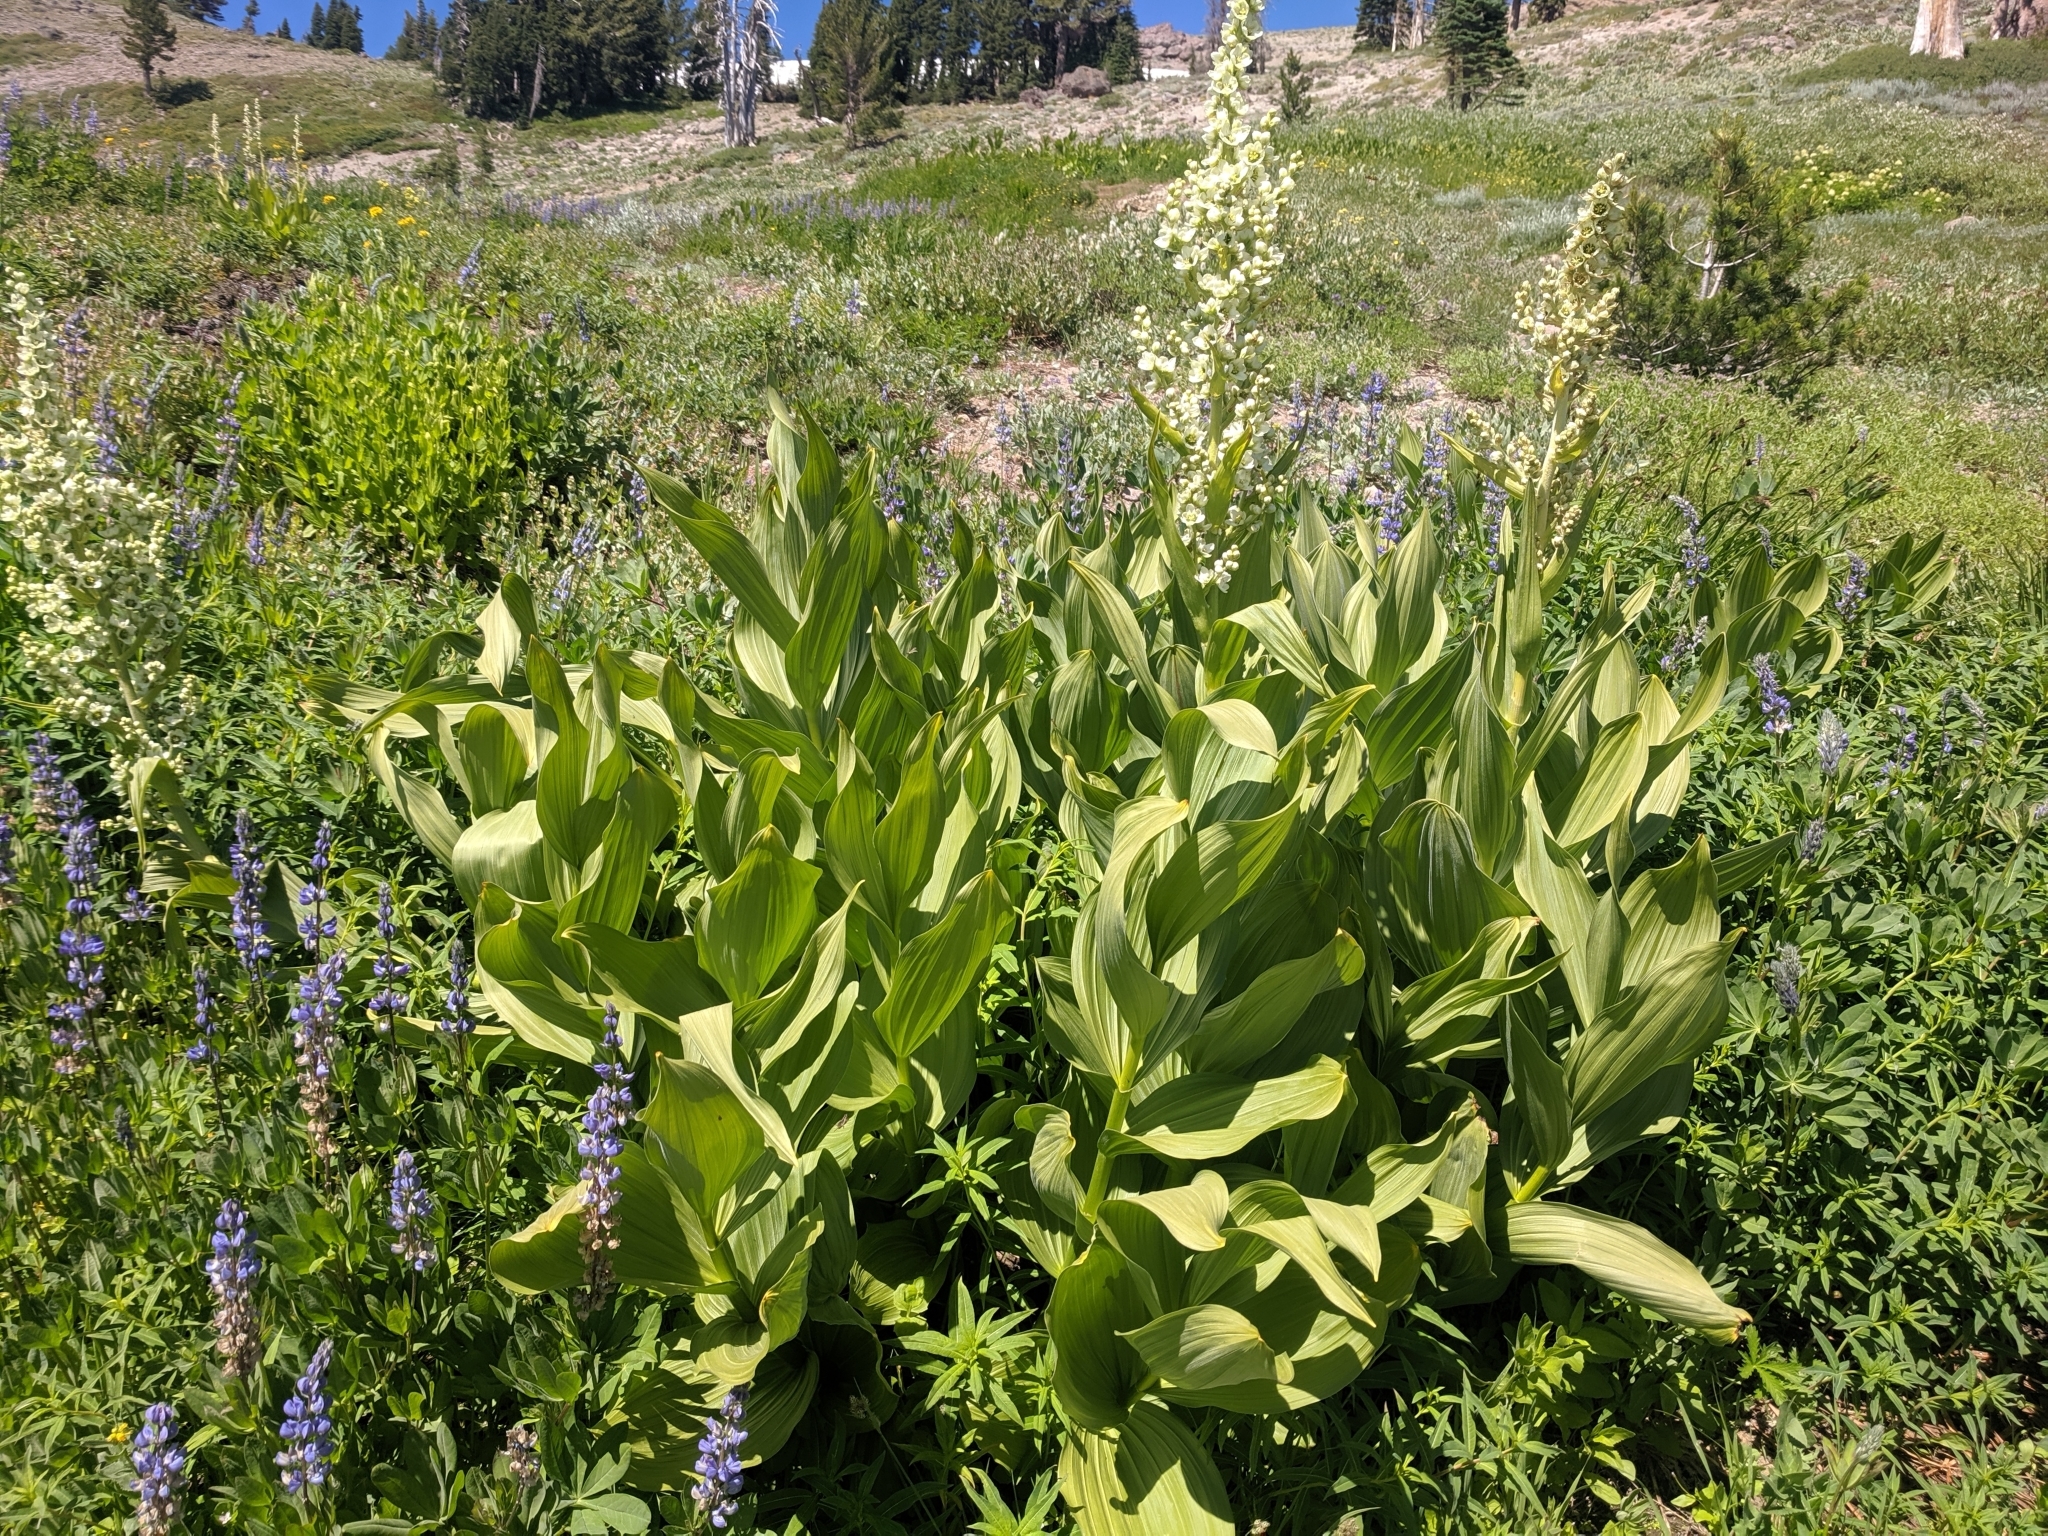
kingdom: Plantae
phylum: Tracheophyta
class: Liliopsida
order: Liliales
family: Melanthiaceae
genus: Veratrum
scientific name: Veratrum californicum
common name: California veratrum
